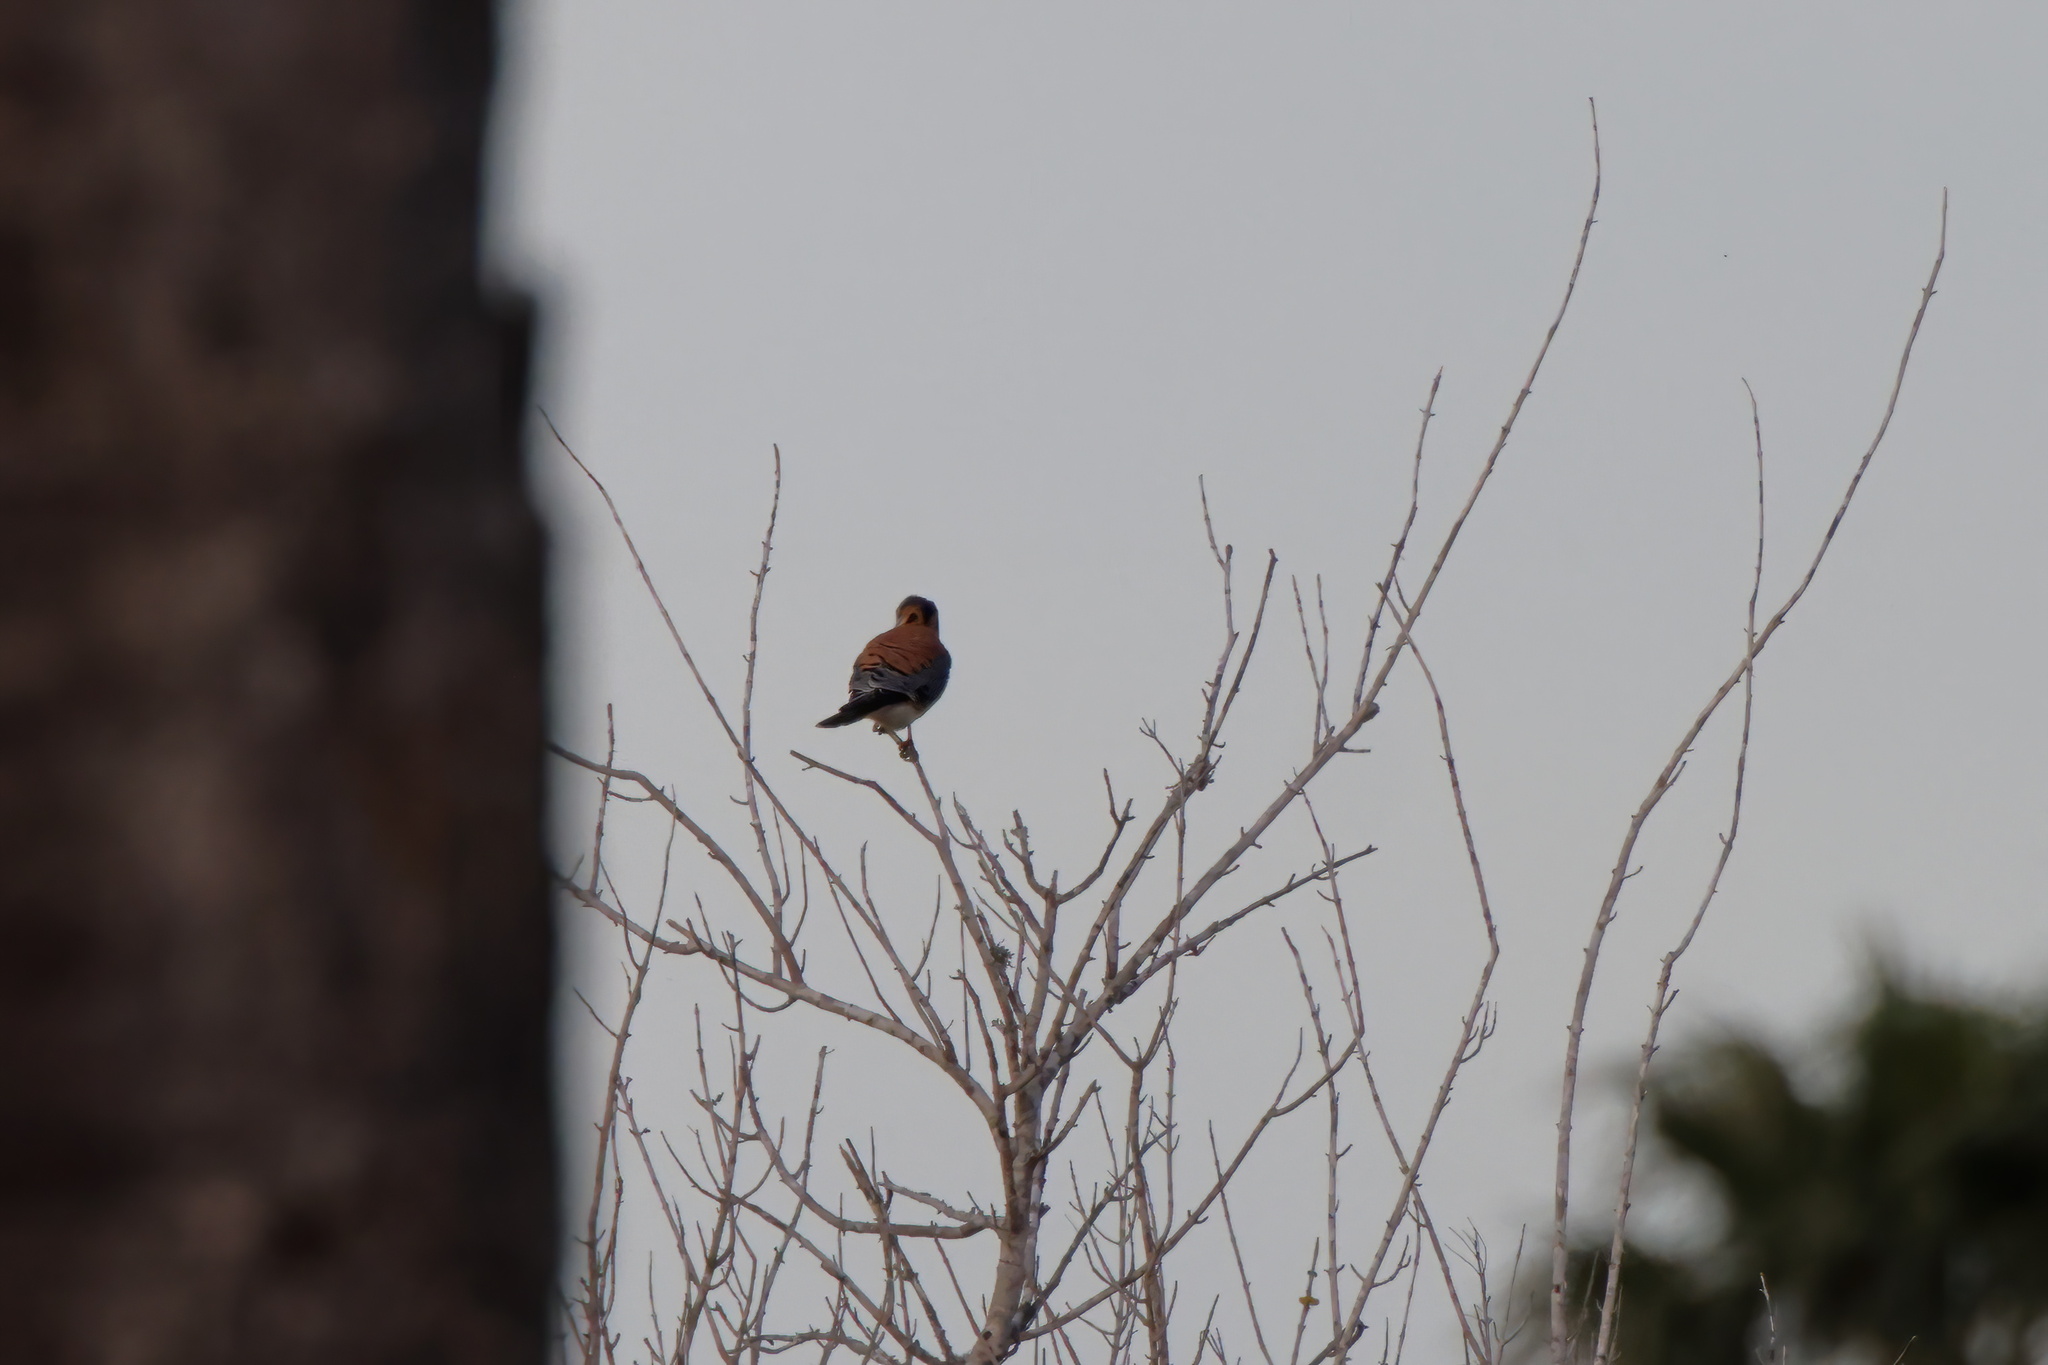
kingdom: Animalia
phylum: Chordata
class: Aves
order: Falconiformes
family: Falconidae
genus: Falco
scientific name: Falco sparverius
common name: American kestrel
